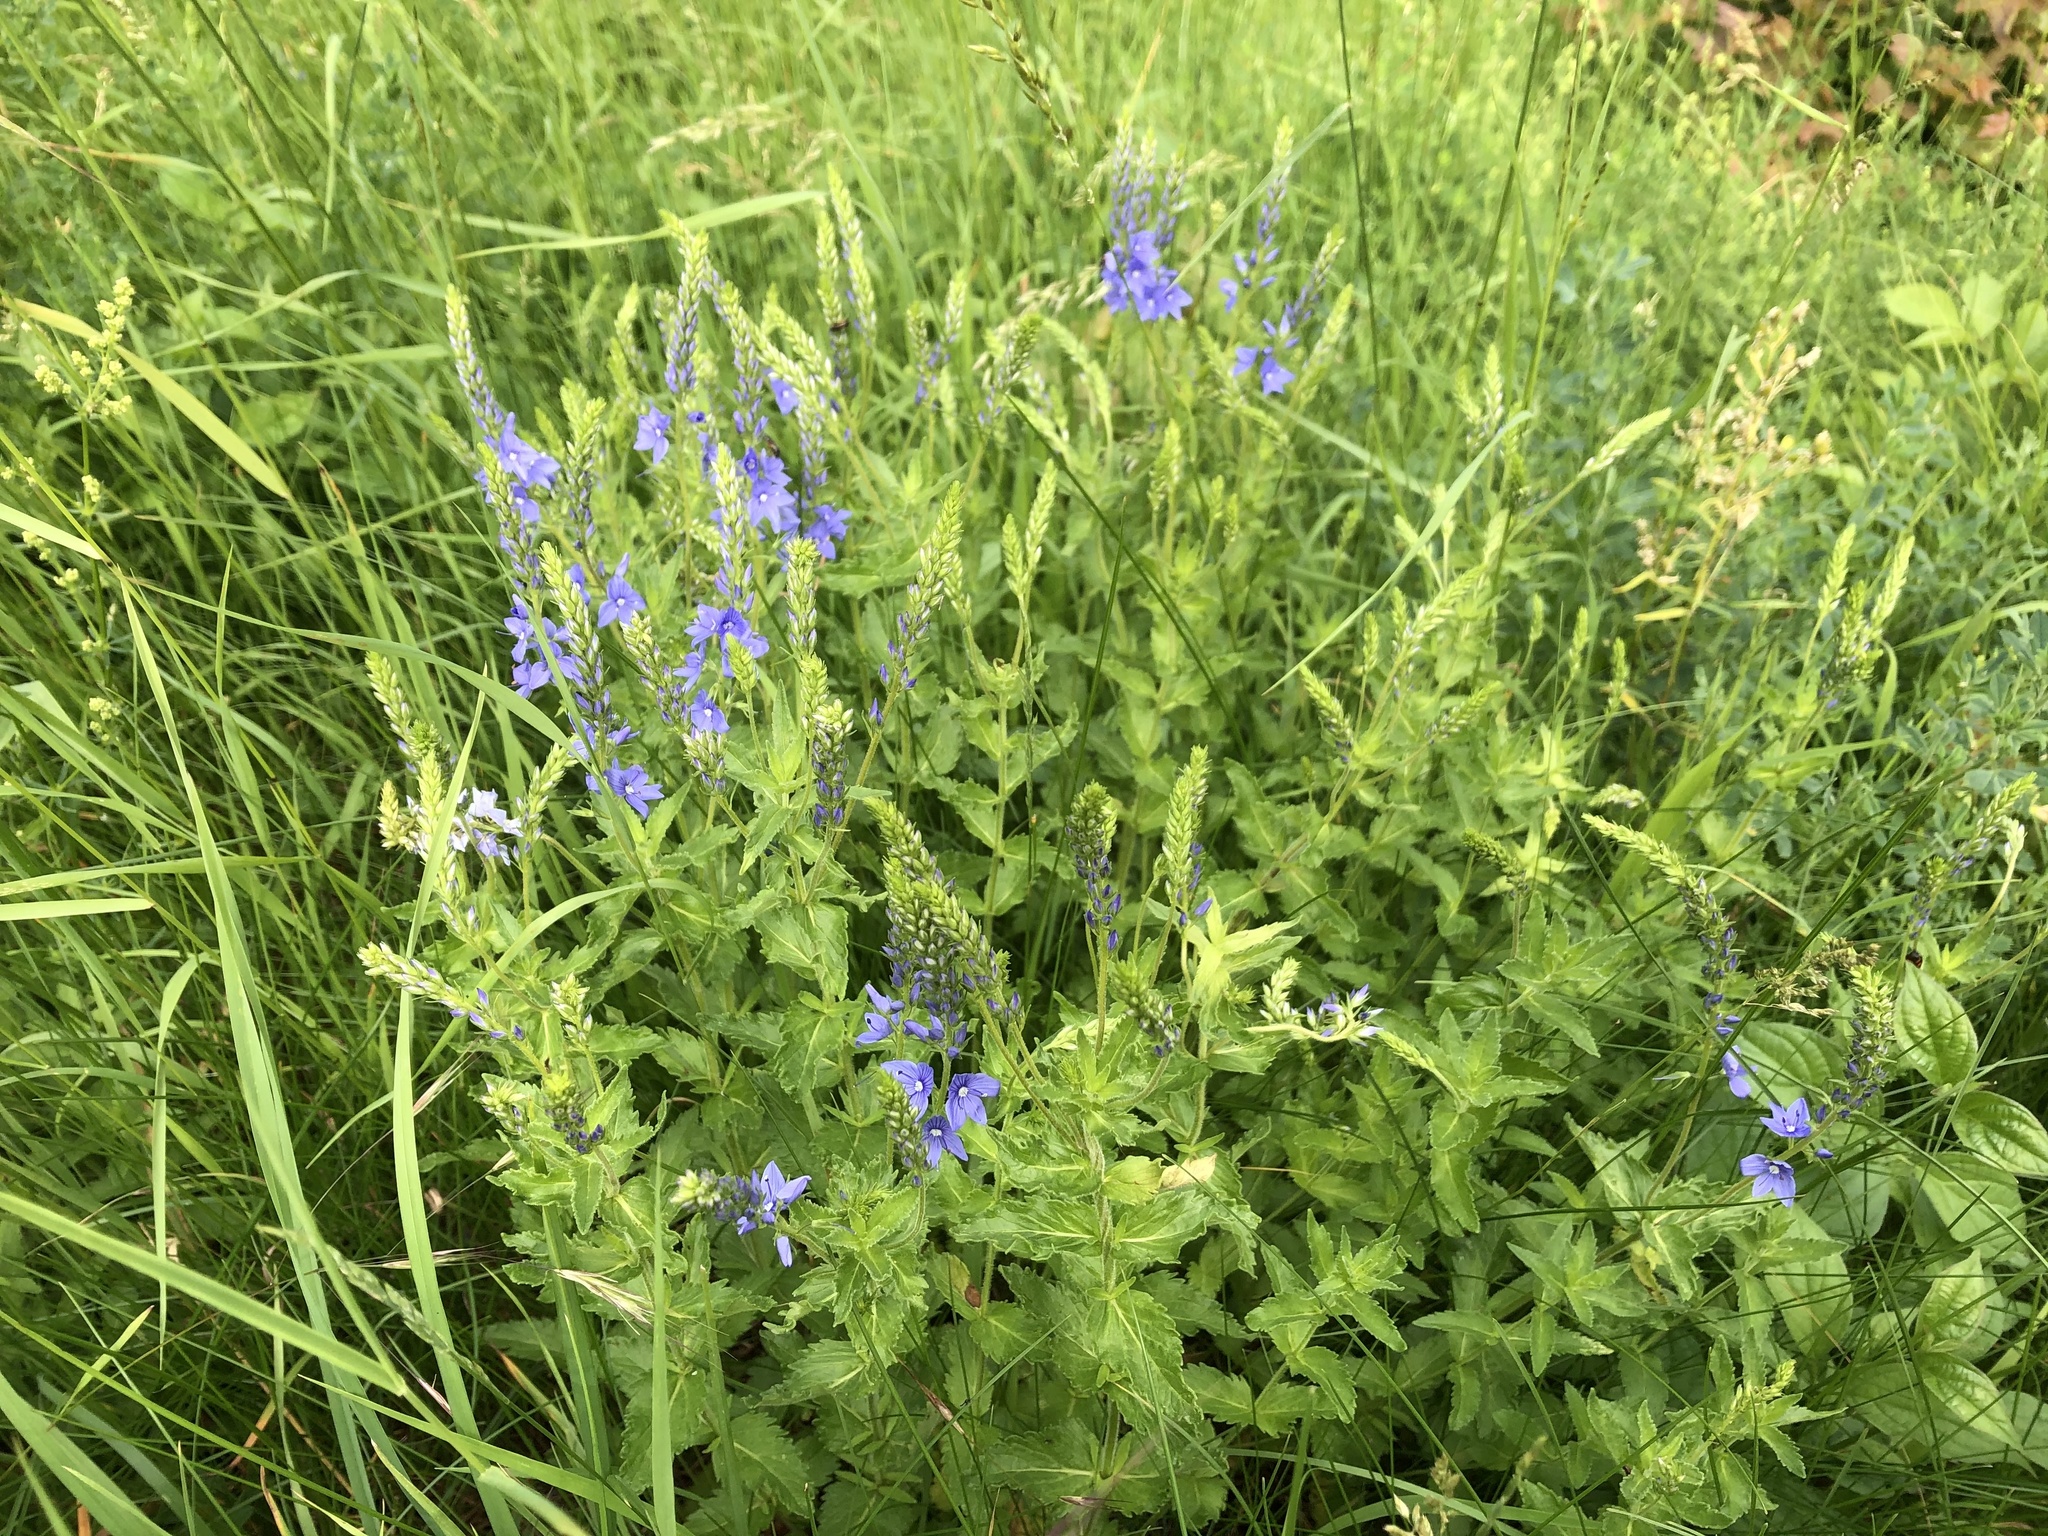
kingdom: Plantae
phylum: Tracheophyta
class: Magnoliopsida
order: Lamiales
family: Plantaginaceae
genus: Veronica
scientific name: Veronica teucrium
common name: Large speedwell
